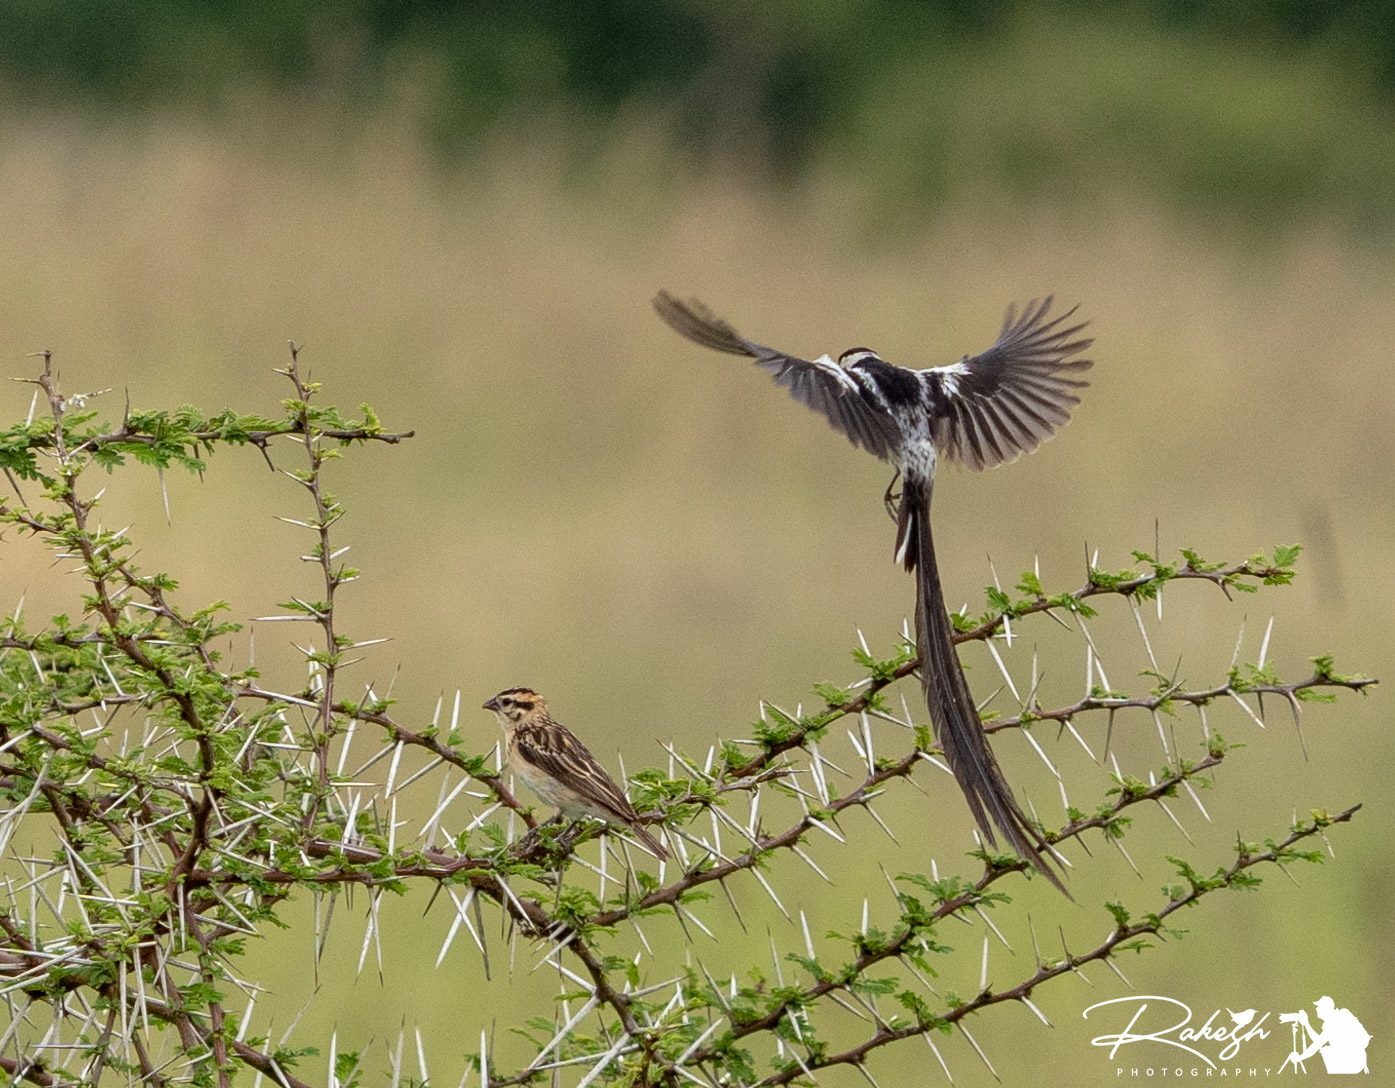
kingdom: Animalia
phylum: Chordata
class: Aves
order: Passeriformes
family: Viduidae
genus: Vidua
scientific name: Vidua macroura
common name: Pin-tailed whydah
